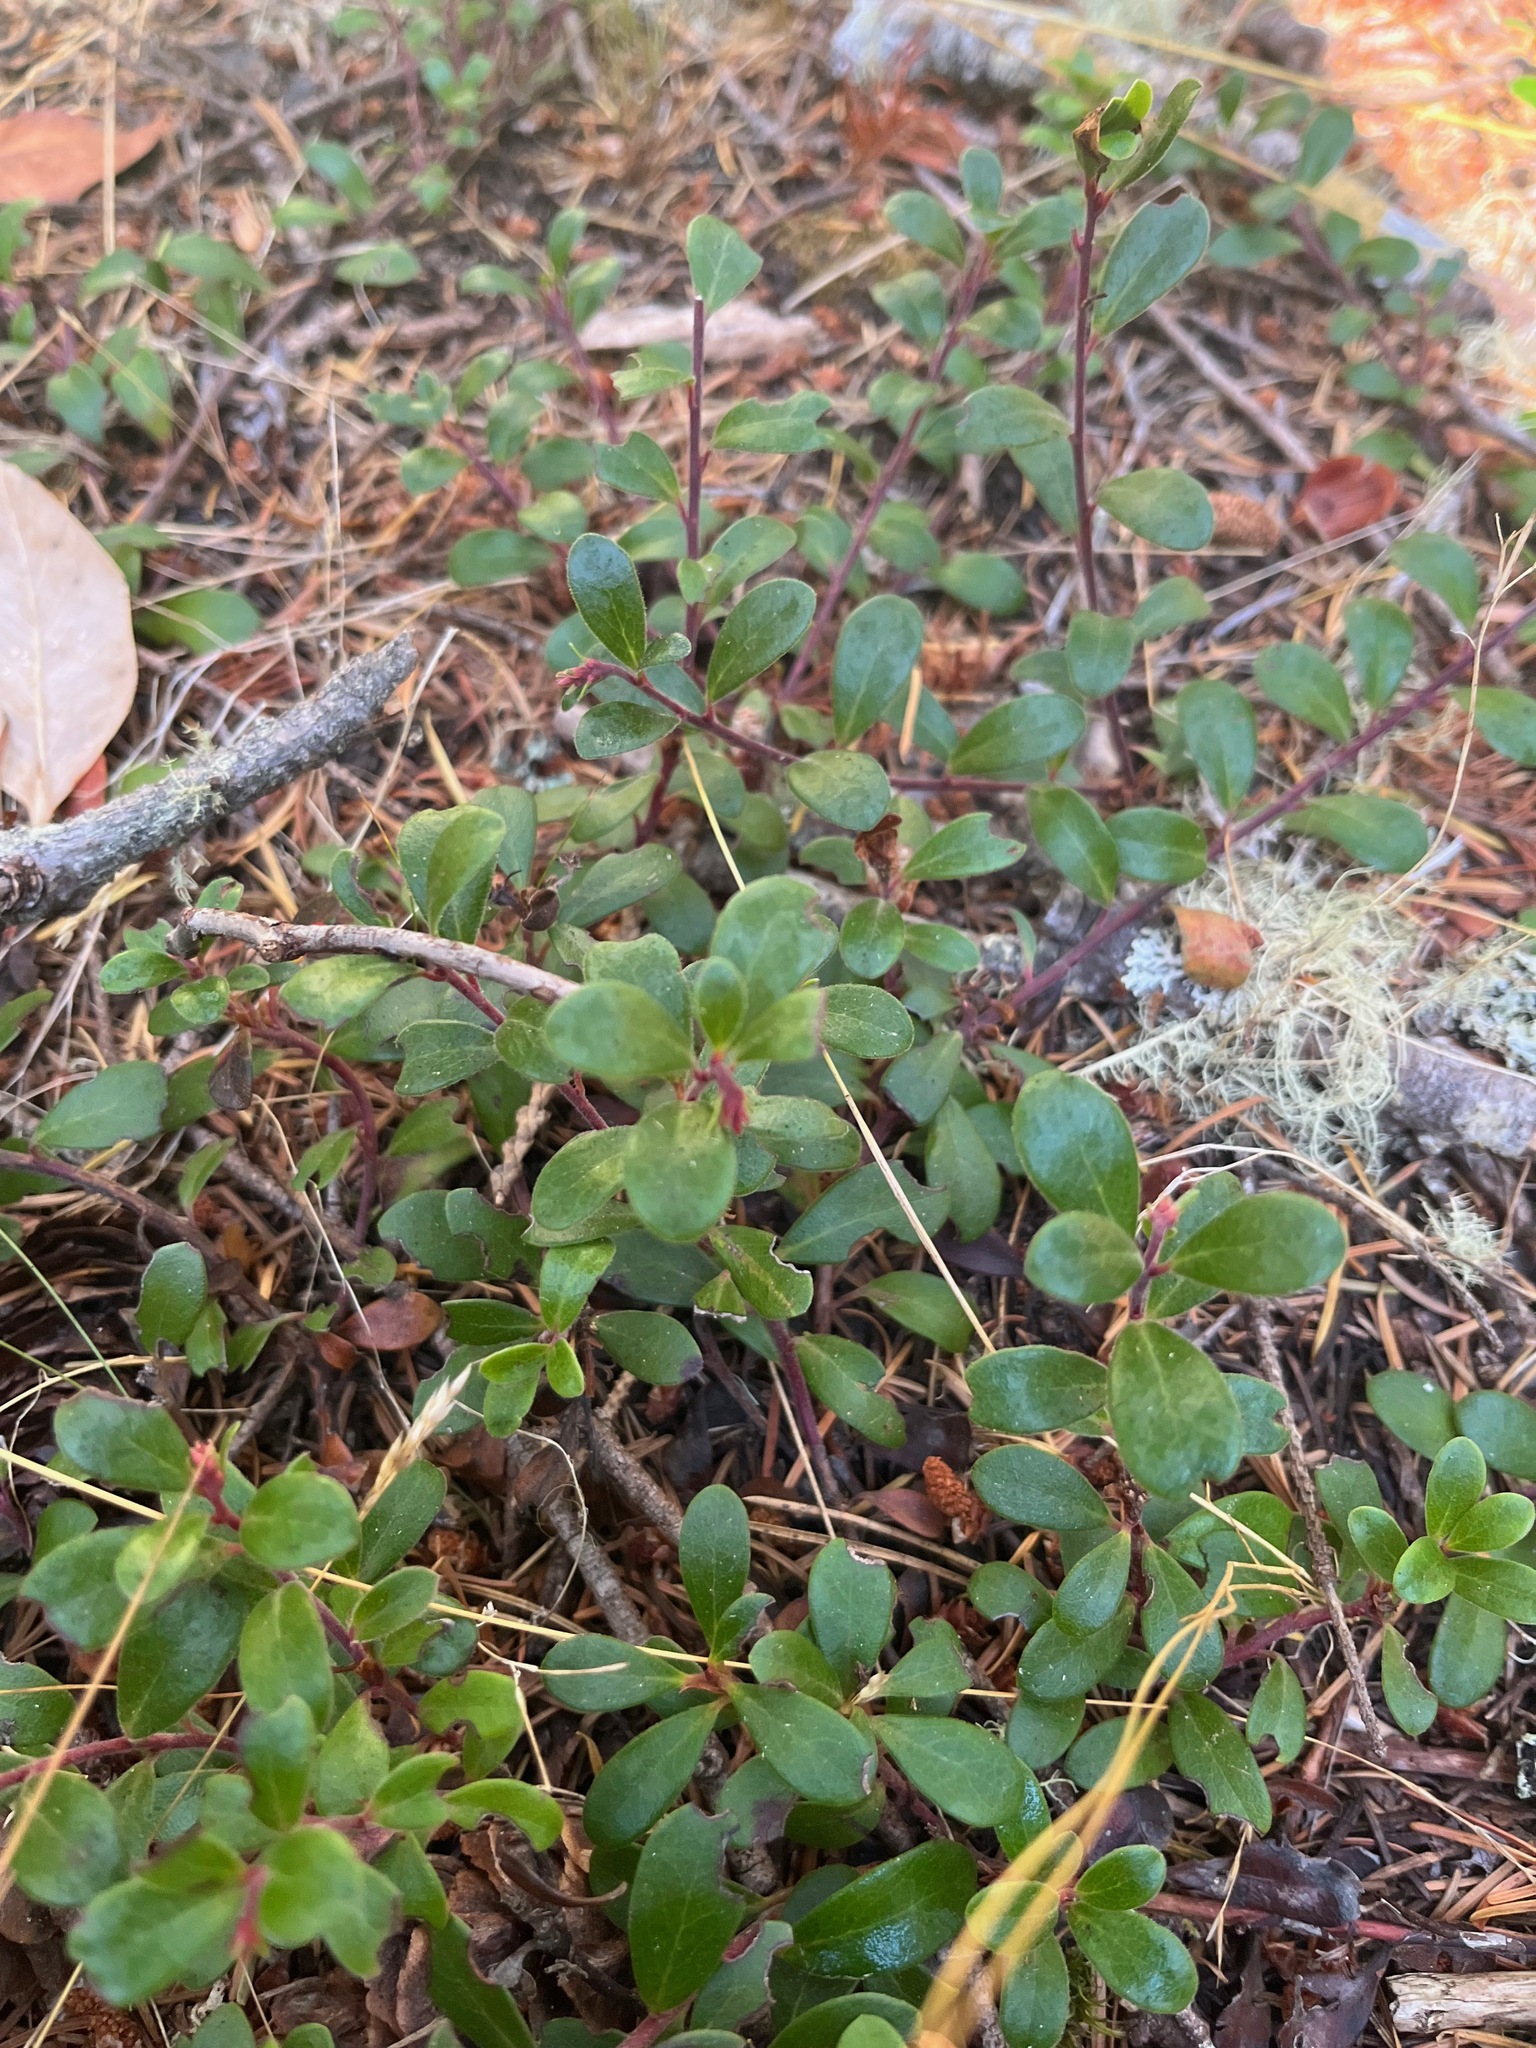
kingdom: Plantae
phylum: Tracheophyta
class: Magnoliopsida
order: Ericales
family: Ericaceae
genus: Arctostaphylos
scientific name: Arctostaphylos uva-ursi
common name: Bearberry
